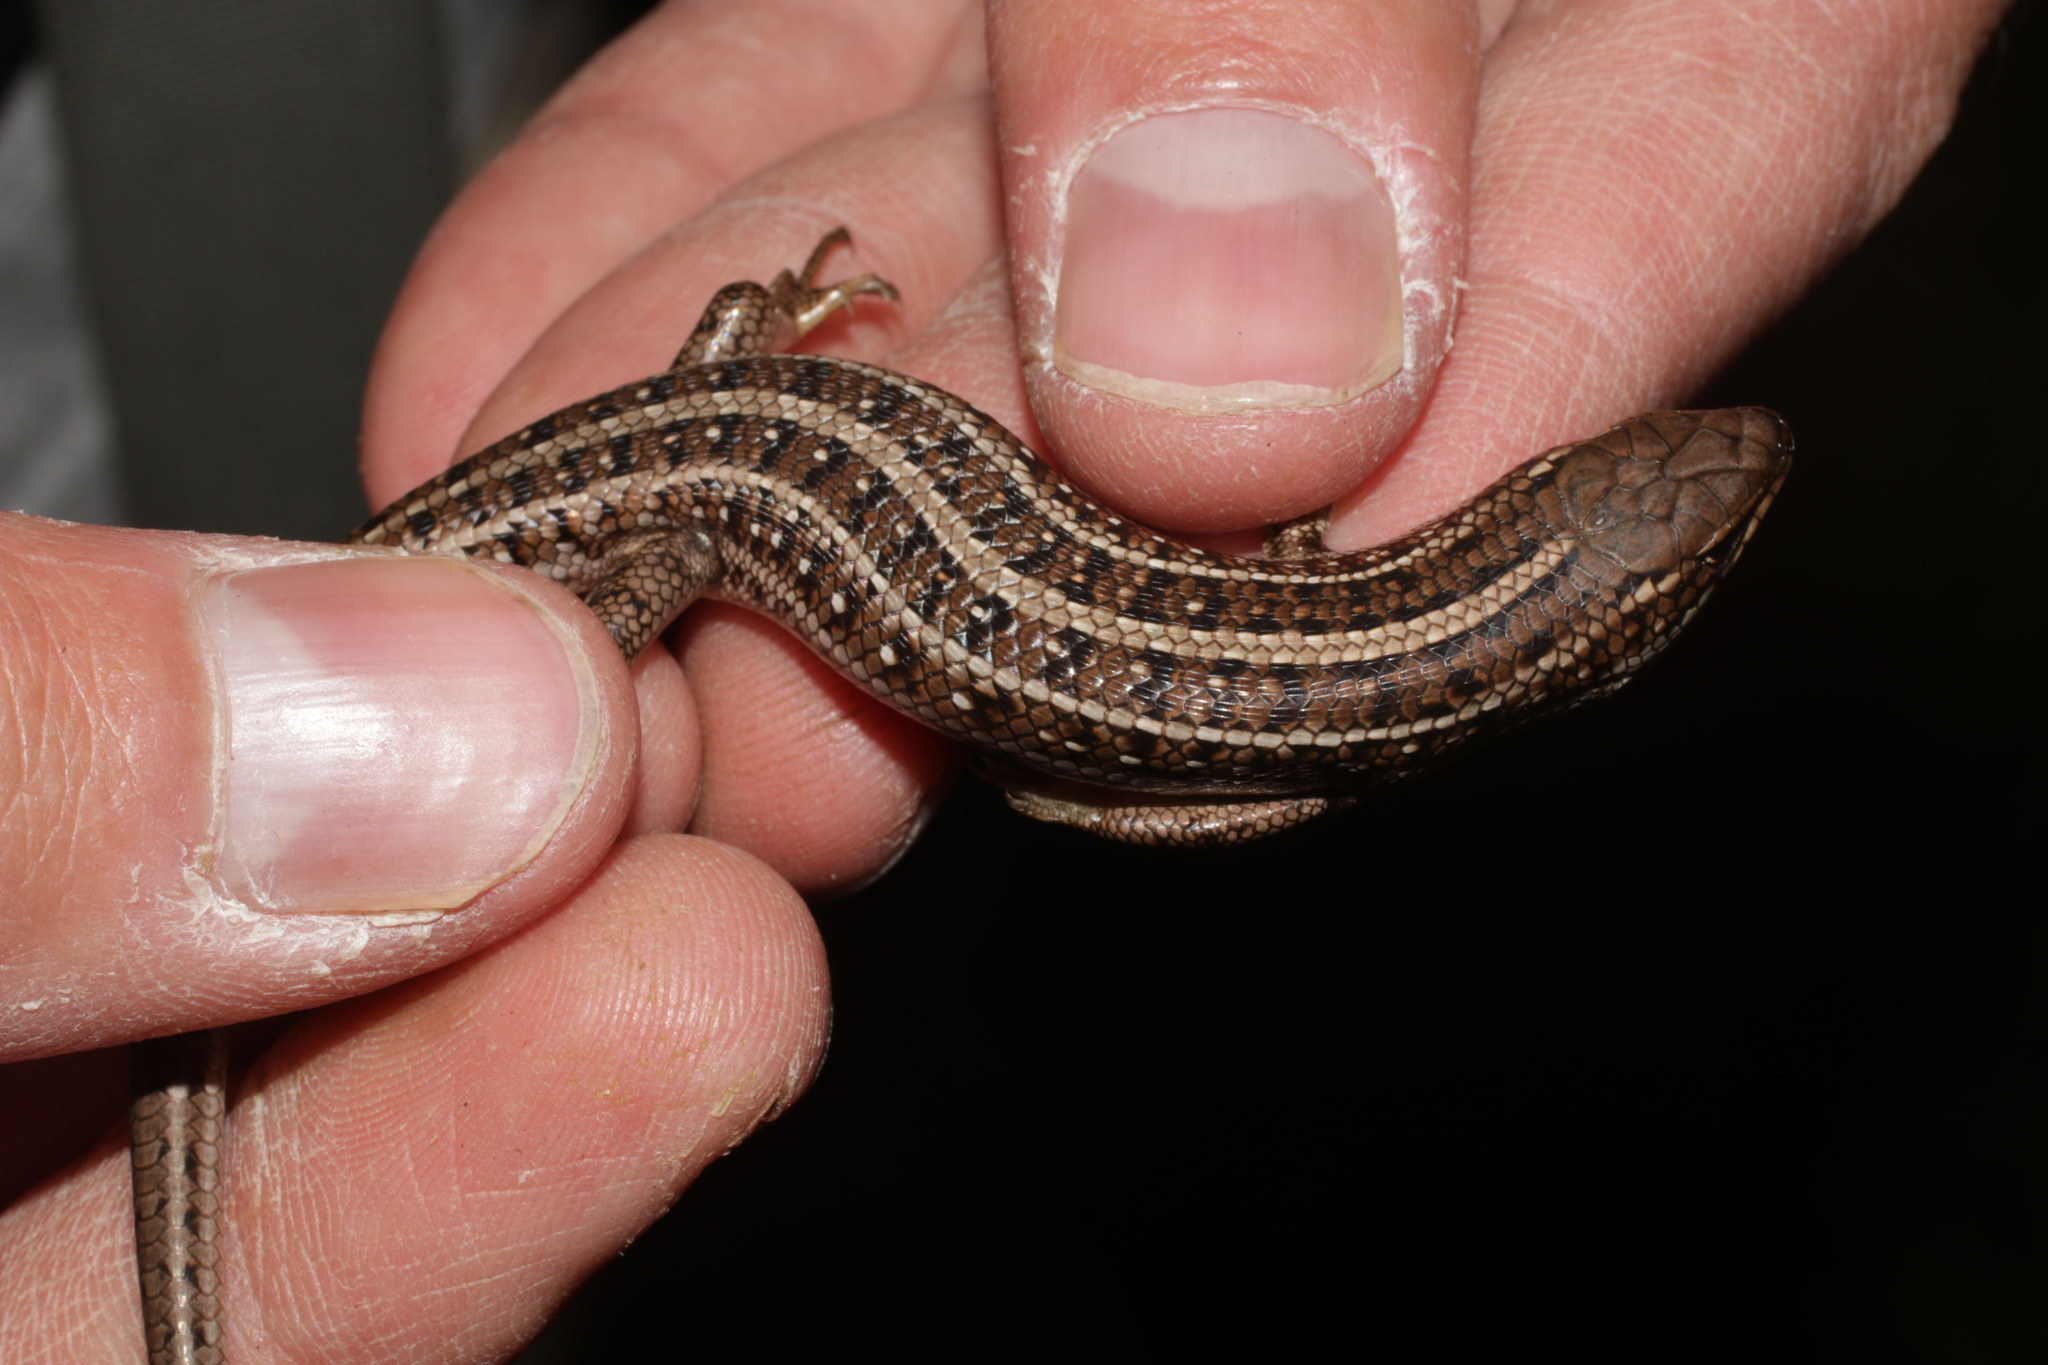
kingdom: Animalia
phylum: Chordata
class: Squamata
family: Scincidae
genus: Trachylepis
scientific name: Trachylepis capensis
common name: Cape skink
